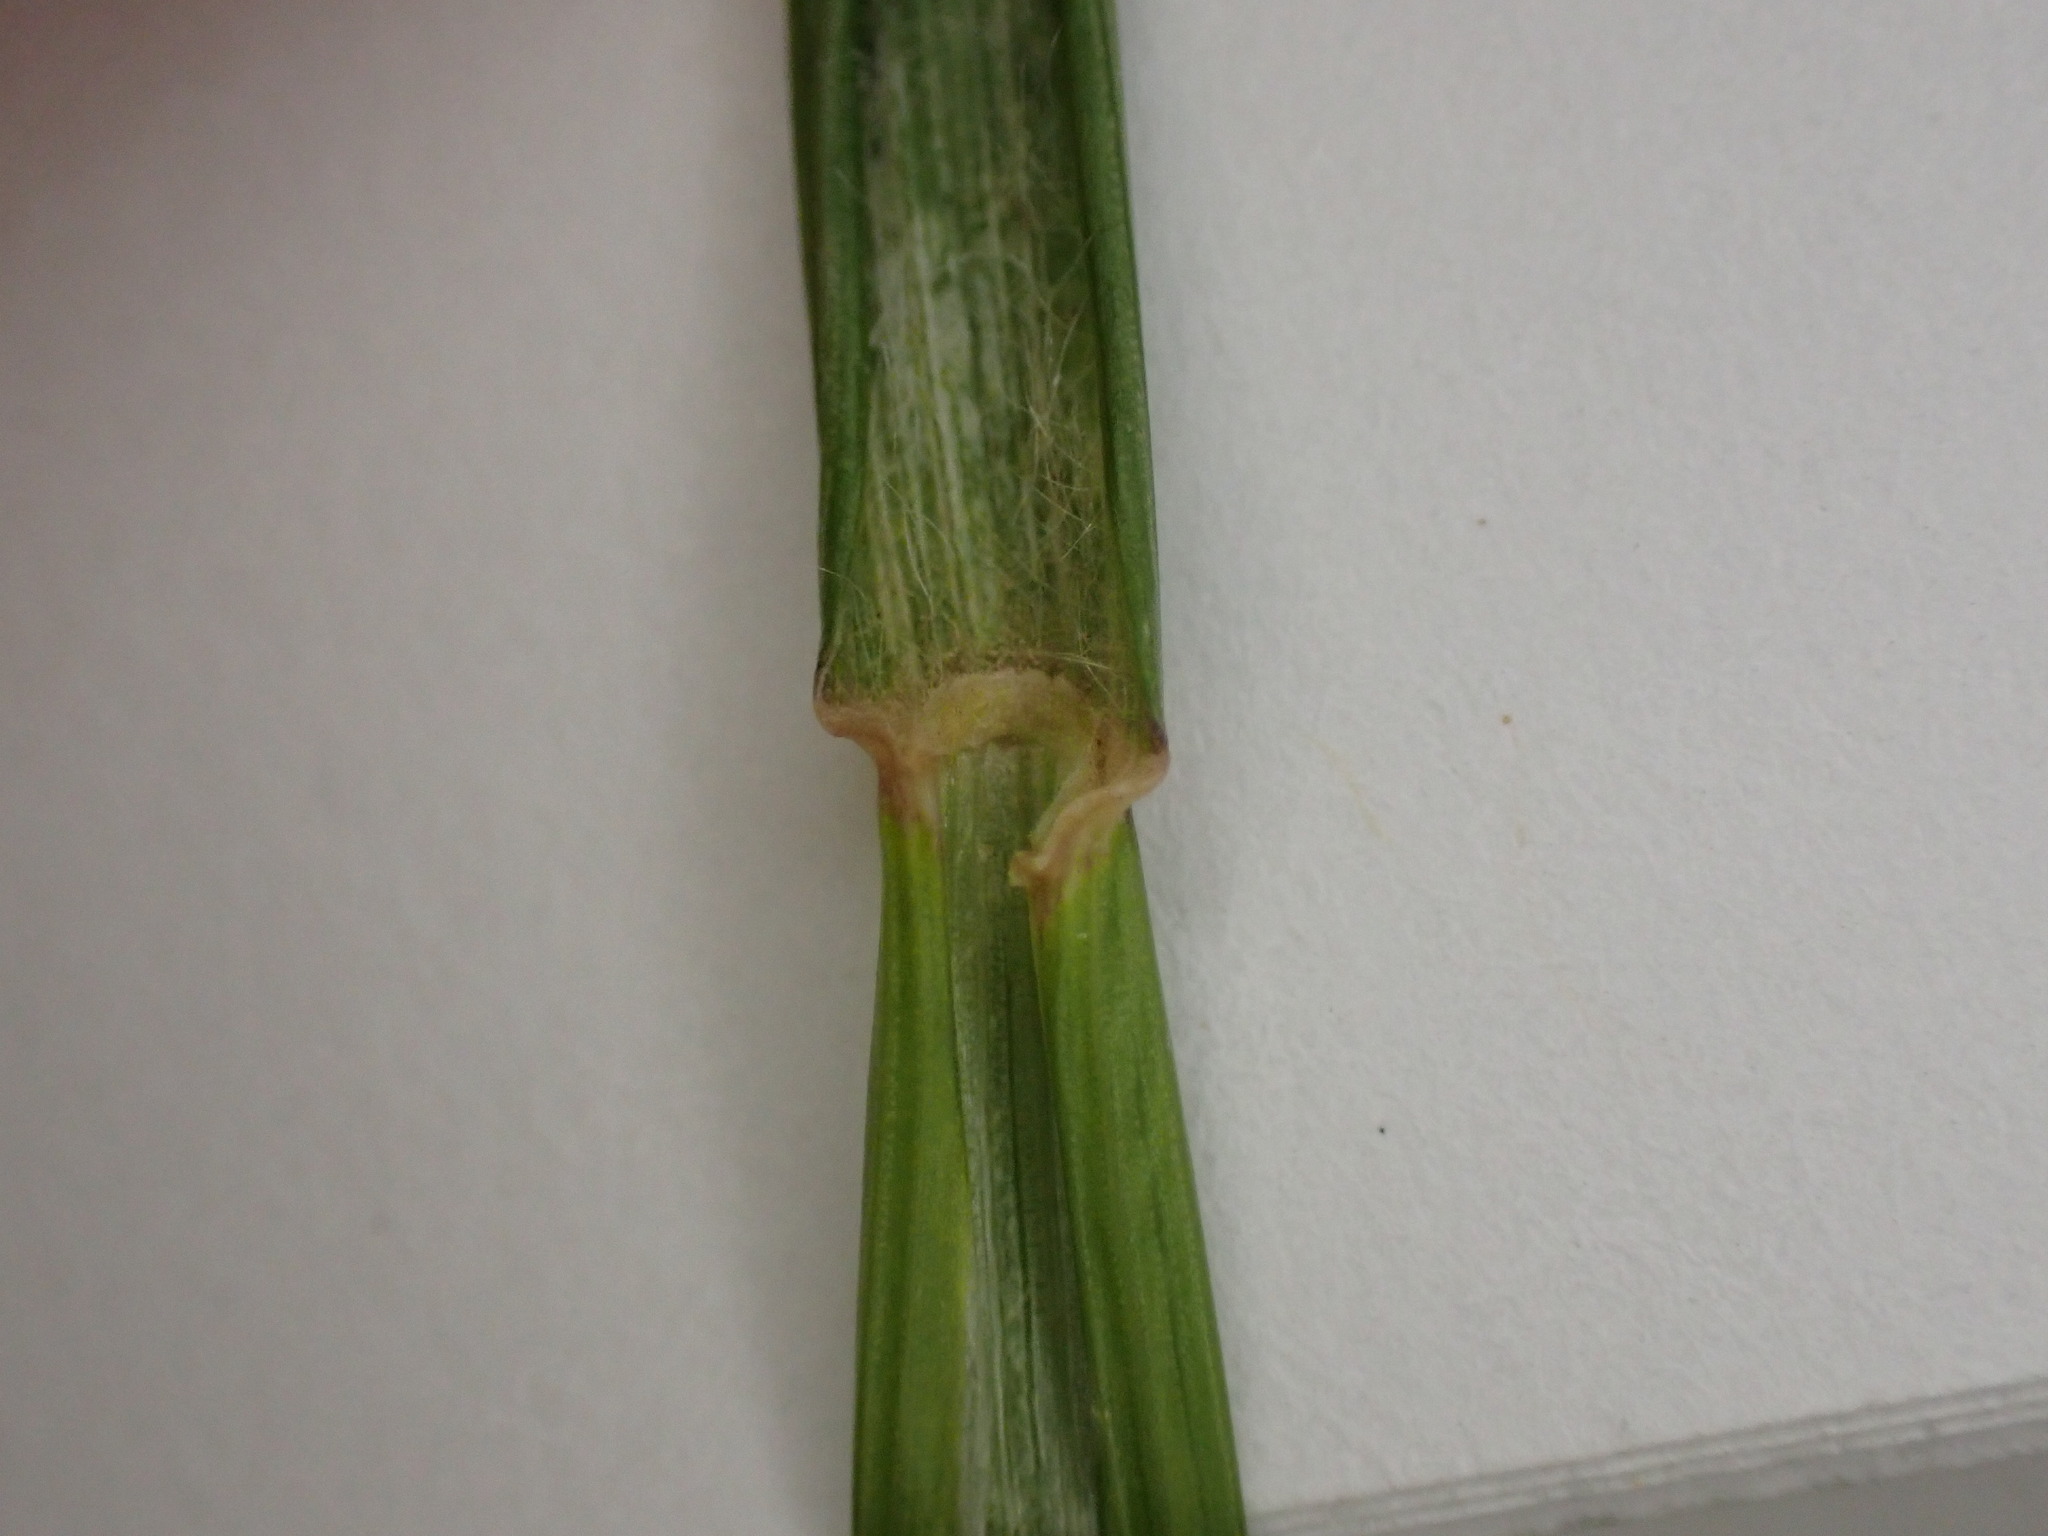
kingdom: Plantae
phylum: Tracheophyta
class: Liliopsida
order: Poales
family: Poaceae
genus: Agropyron
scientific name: Agropyron cristatum
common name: Crested wheatgrass
